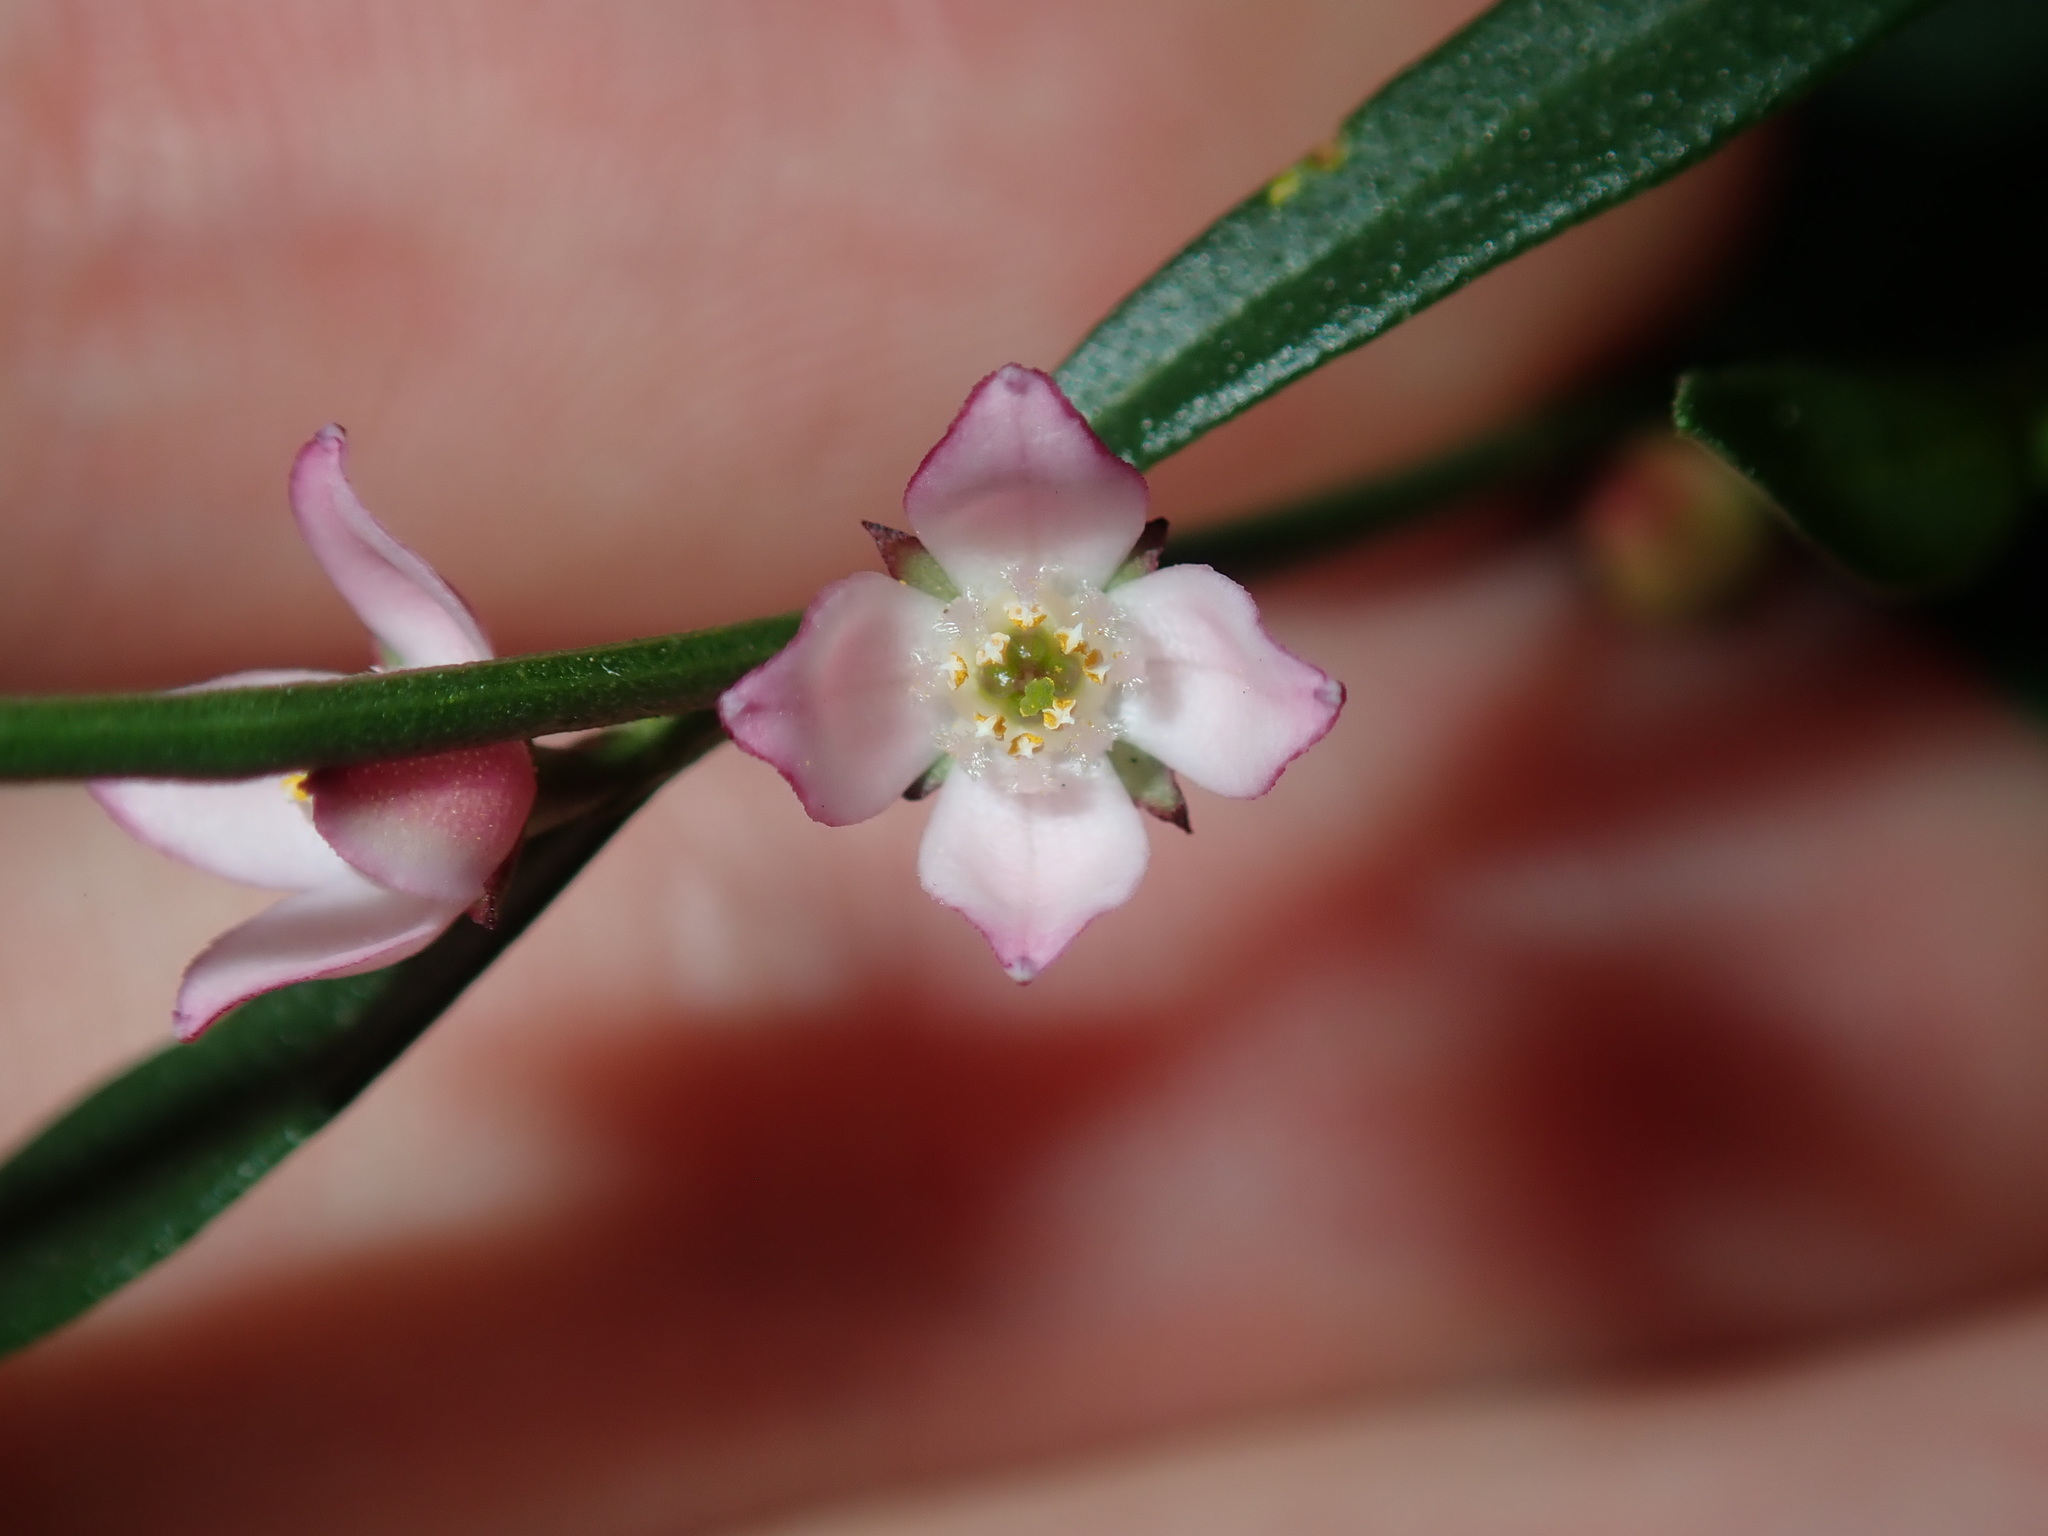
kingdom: Plantae
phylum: Tracheophyta
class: Magnoliopsida
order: Sapindales
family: Rutaceae
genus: Cyanothamnus
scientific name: Cyanothamnus polygalifolius
